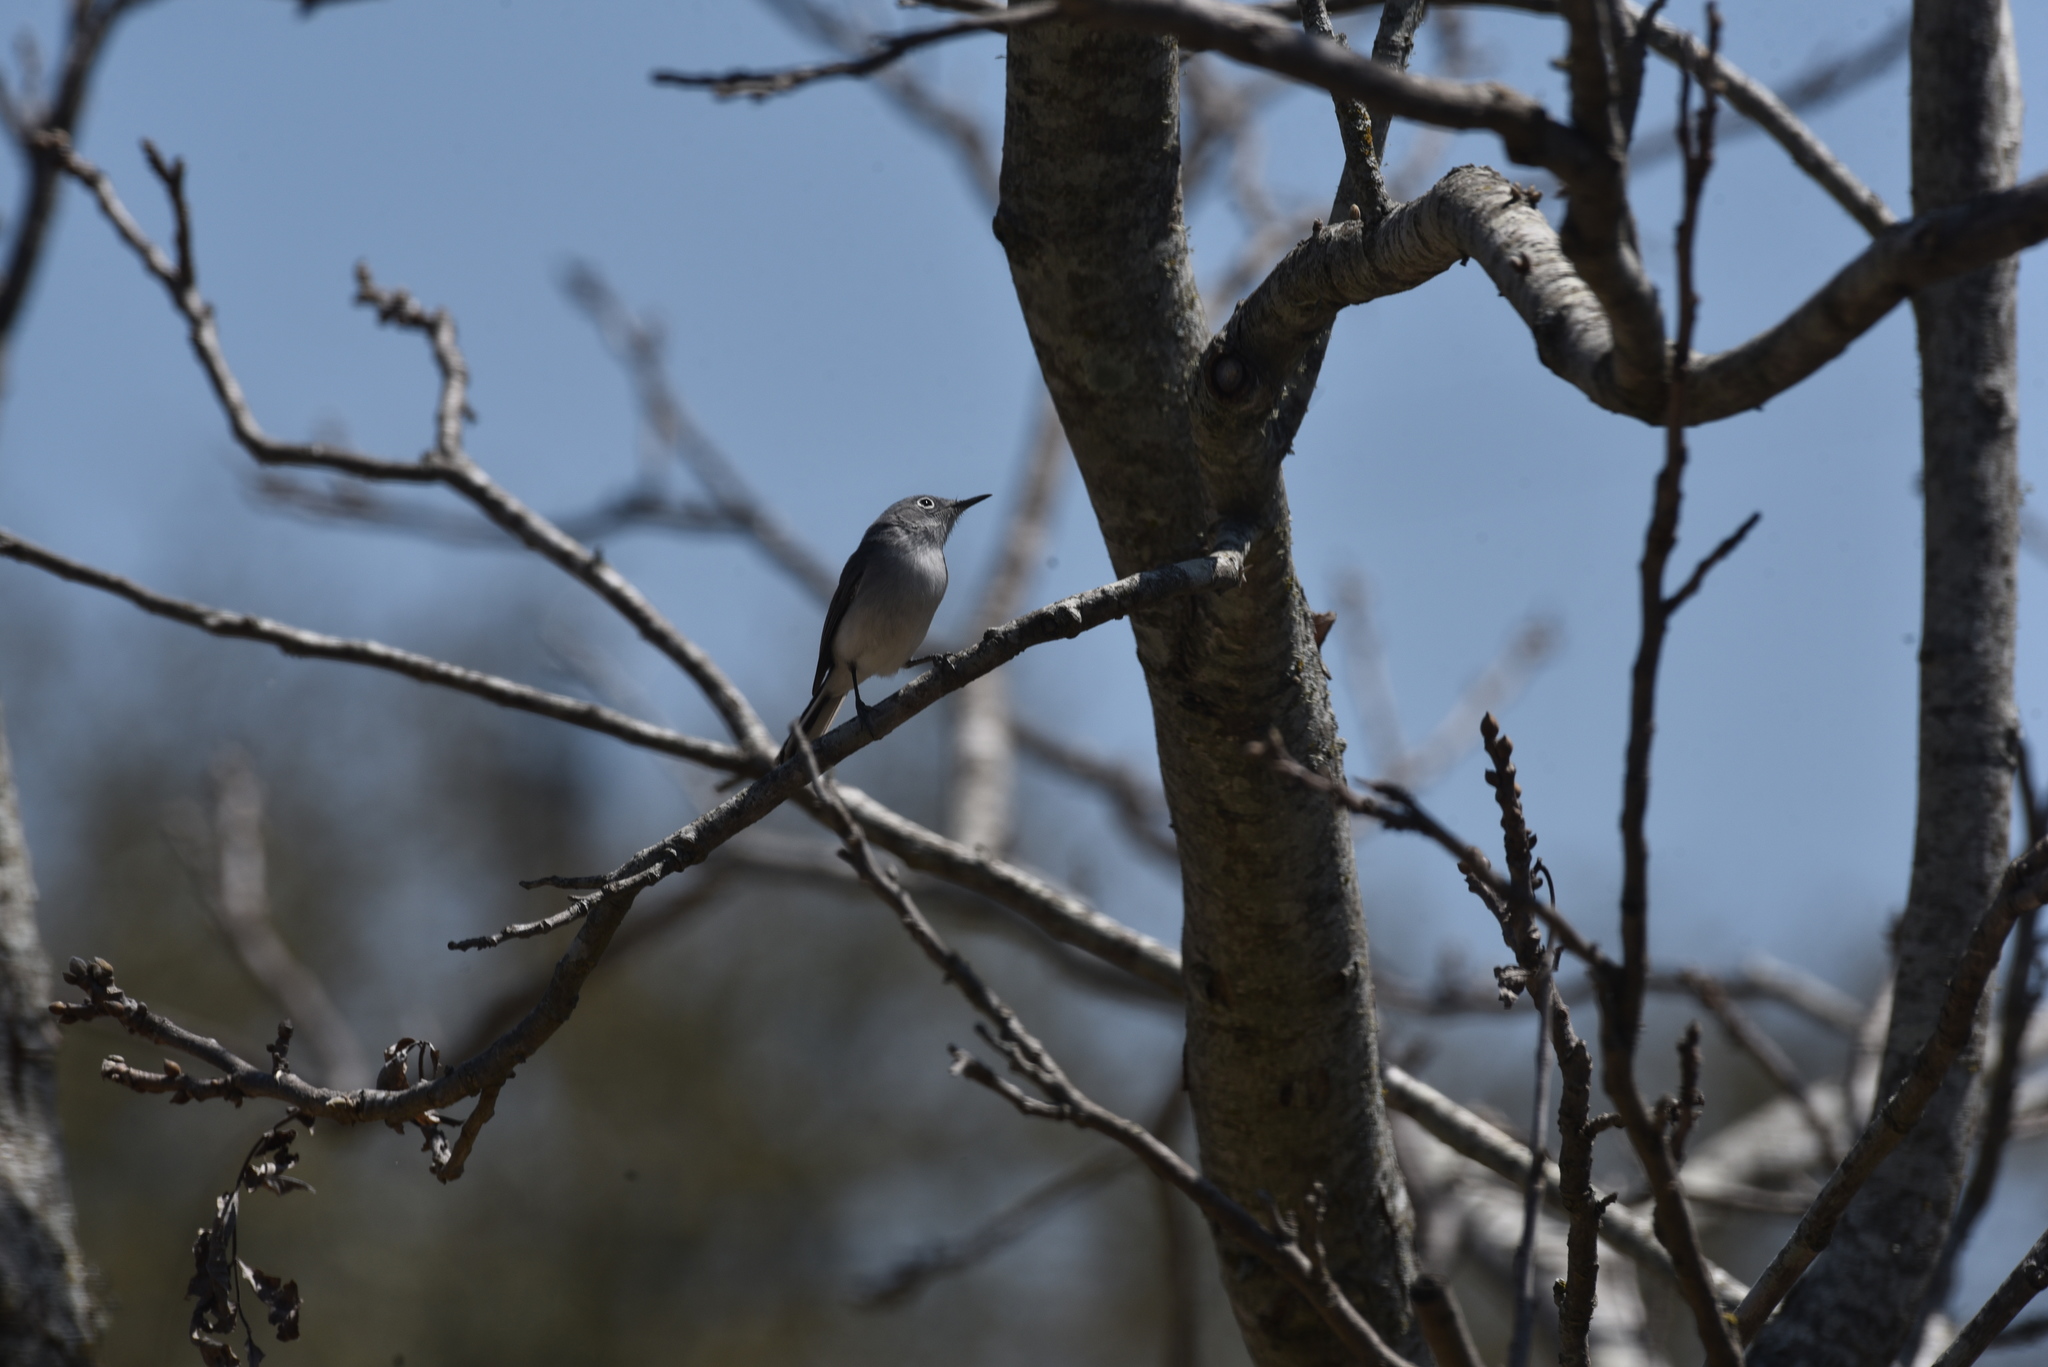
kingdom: Animalia
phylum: Chordata
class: Aves
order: Passeriformes
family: Polioptilidae
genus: Polioptila
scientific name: Polioptila caerulea
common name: Blue-gray gnatcatcher
